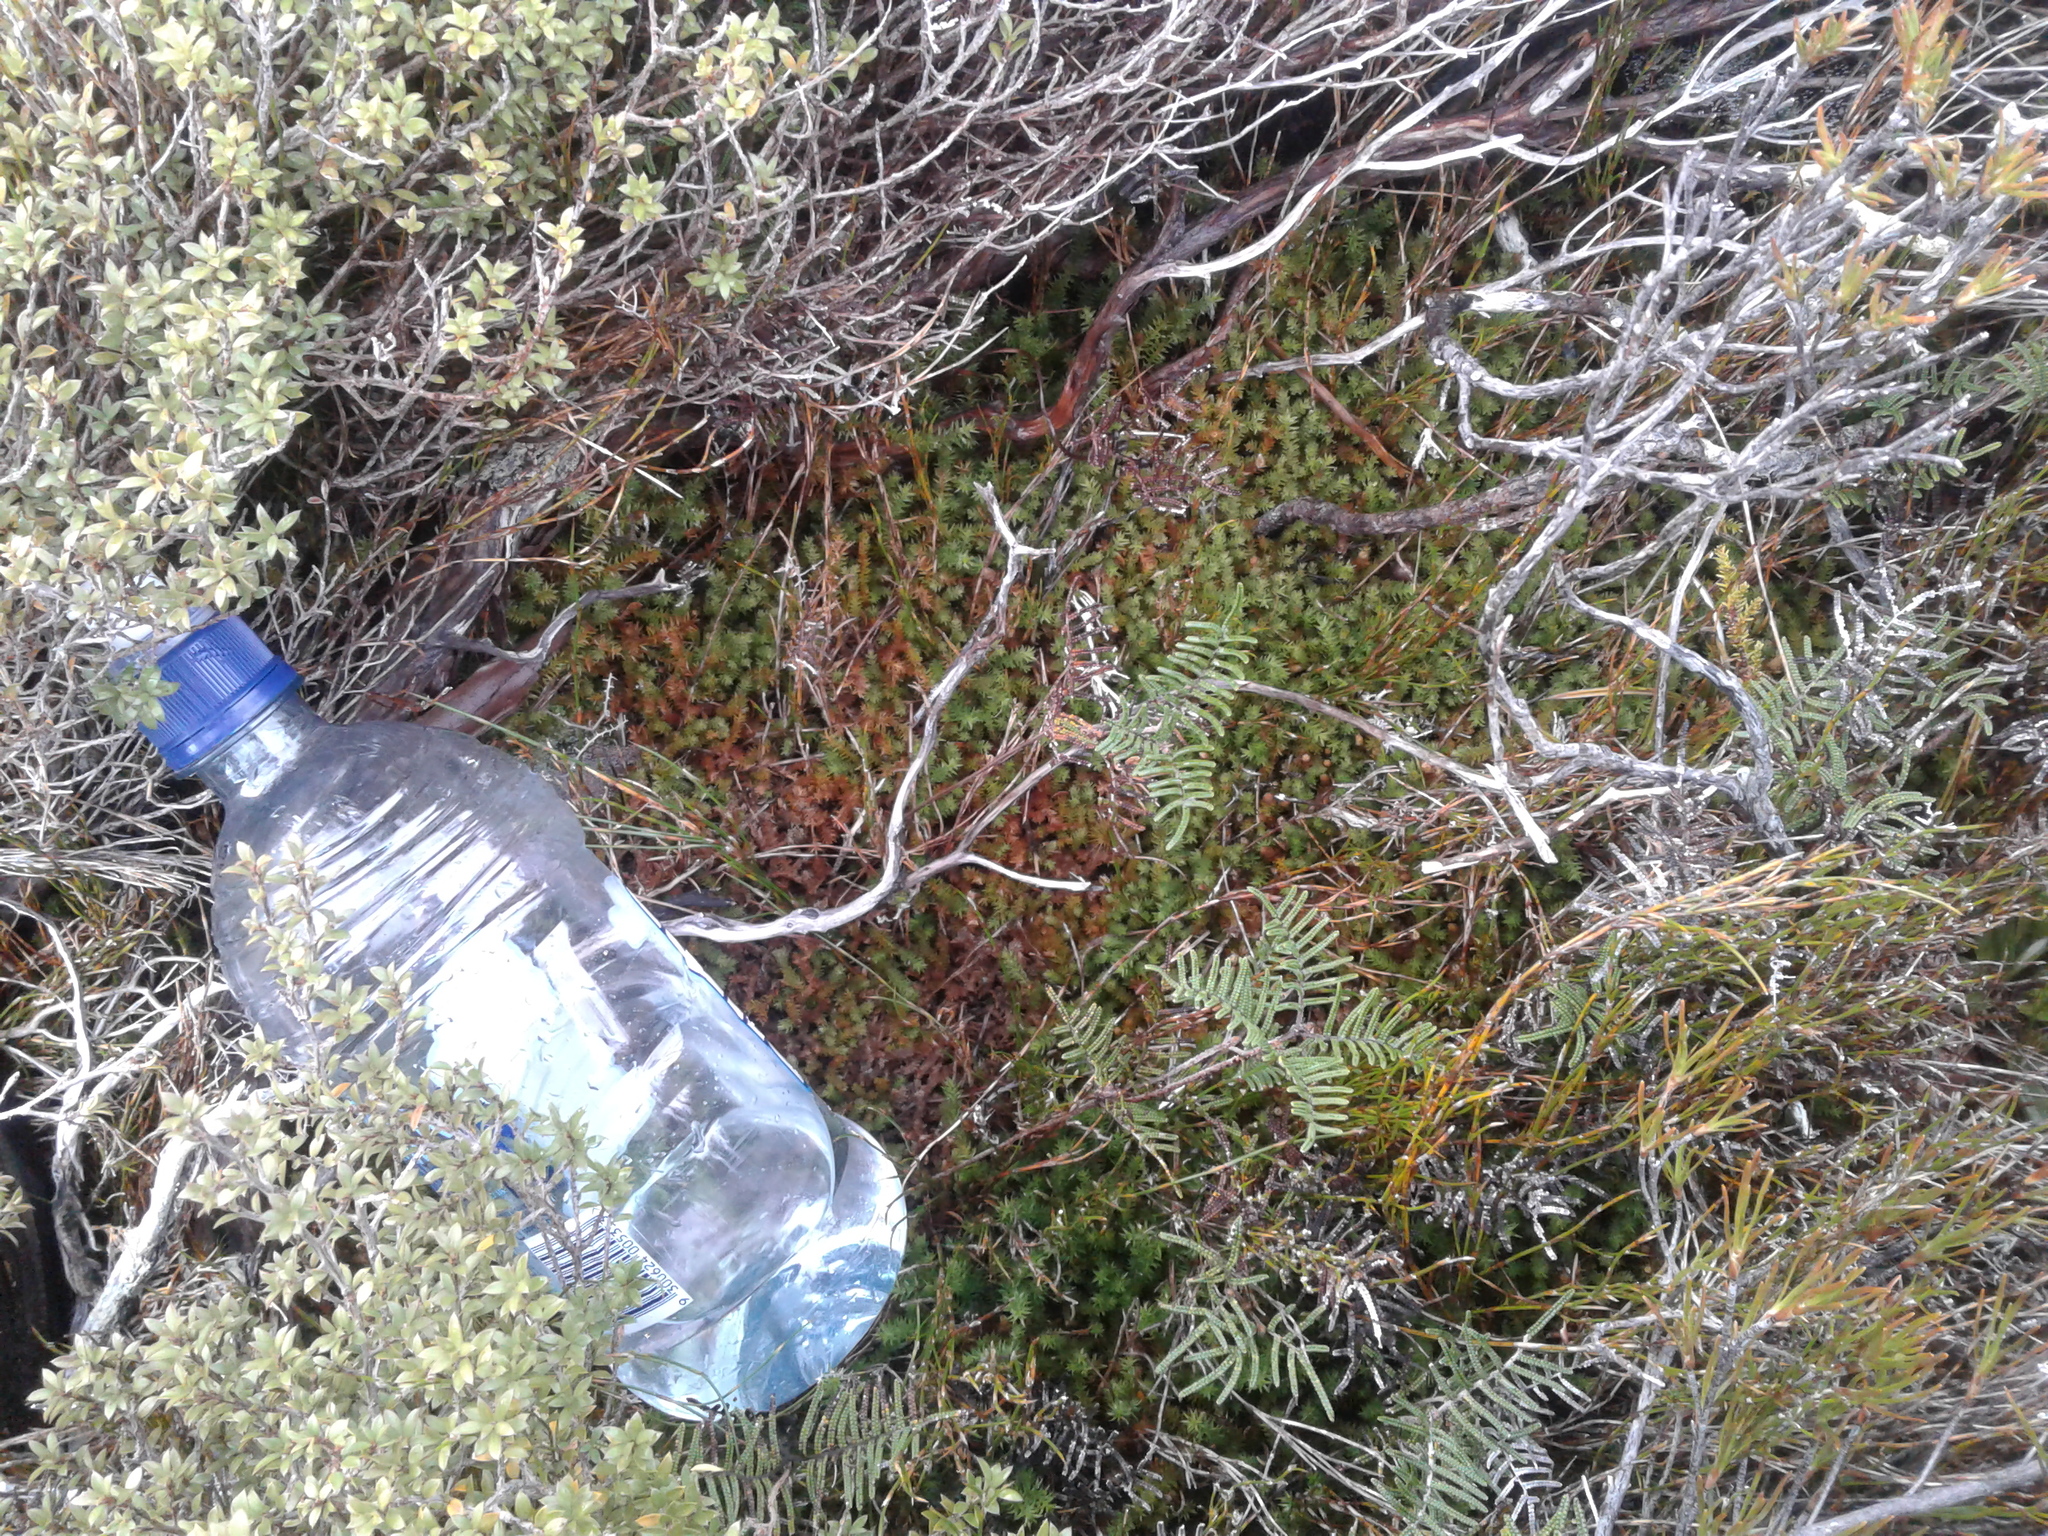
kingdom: Plantae
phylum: Tracheophyta
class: Lycopodiopsida
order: Lycopodiales
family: Lycopodiaceae
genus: Lateristachys
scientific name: Lateristachys diffusa
